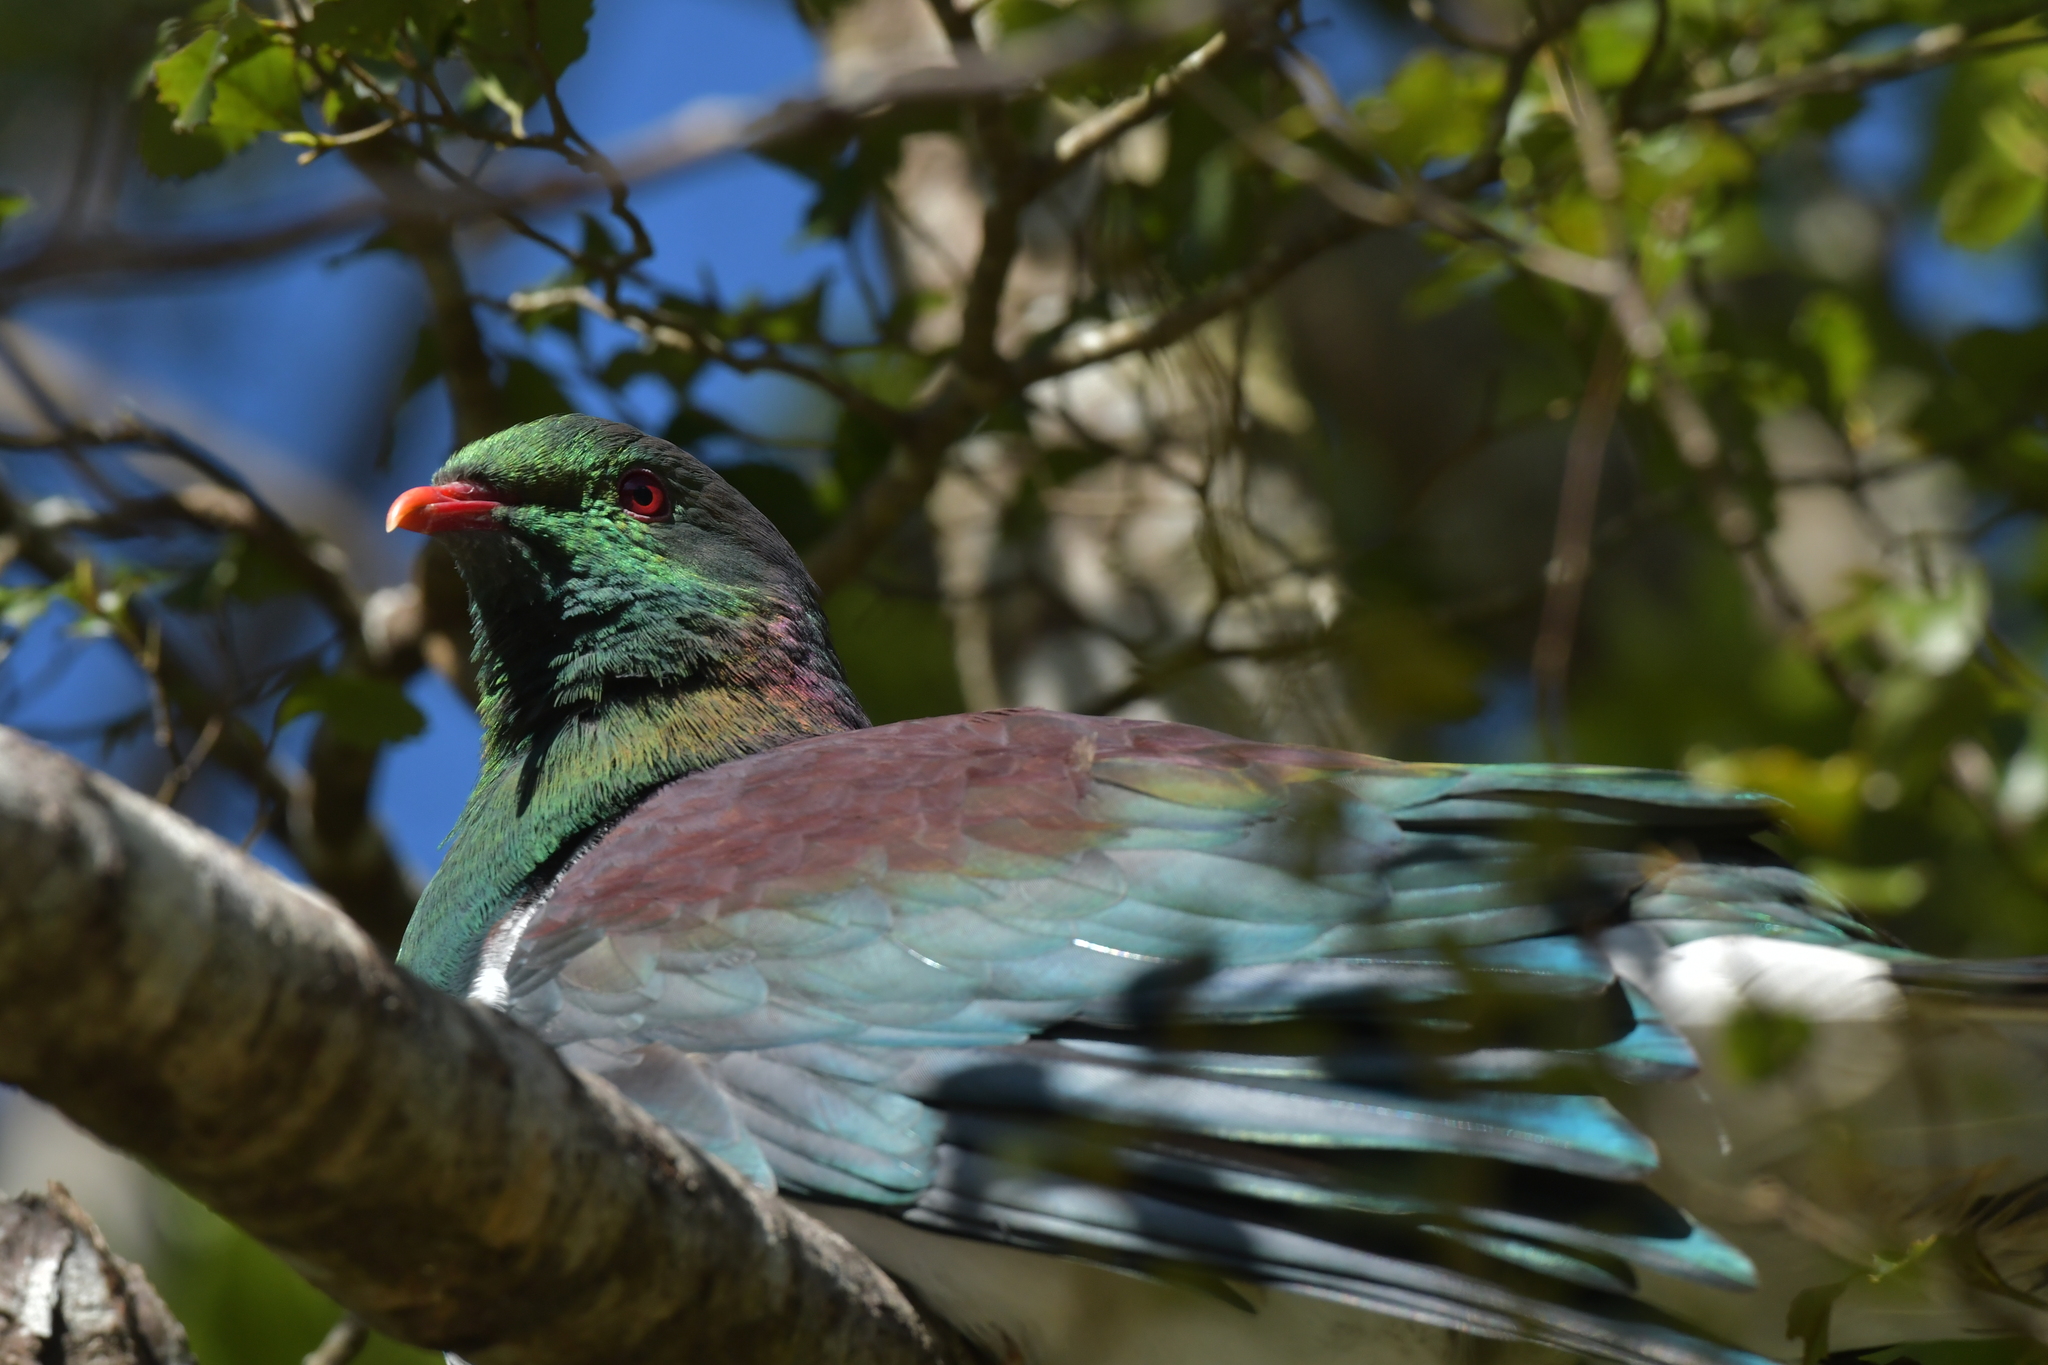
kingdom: Animalia
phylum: Chordata
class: Aves
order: Columbiformes
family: Columbidae
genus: Hemiphaga
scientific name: Hemiphaga novaeseelandiae
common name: New zealand pigeon
